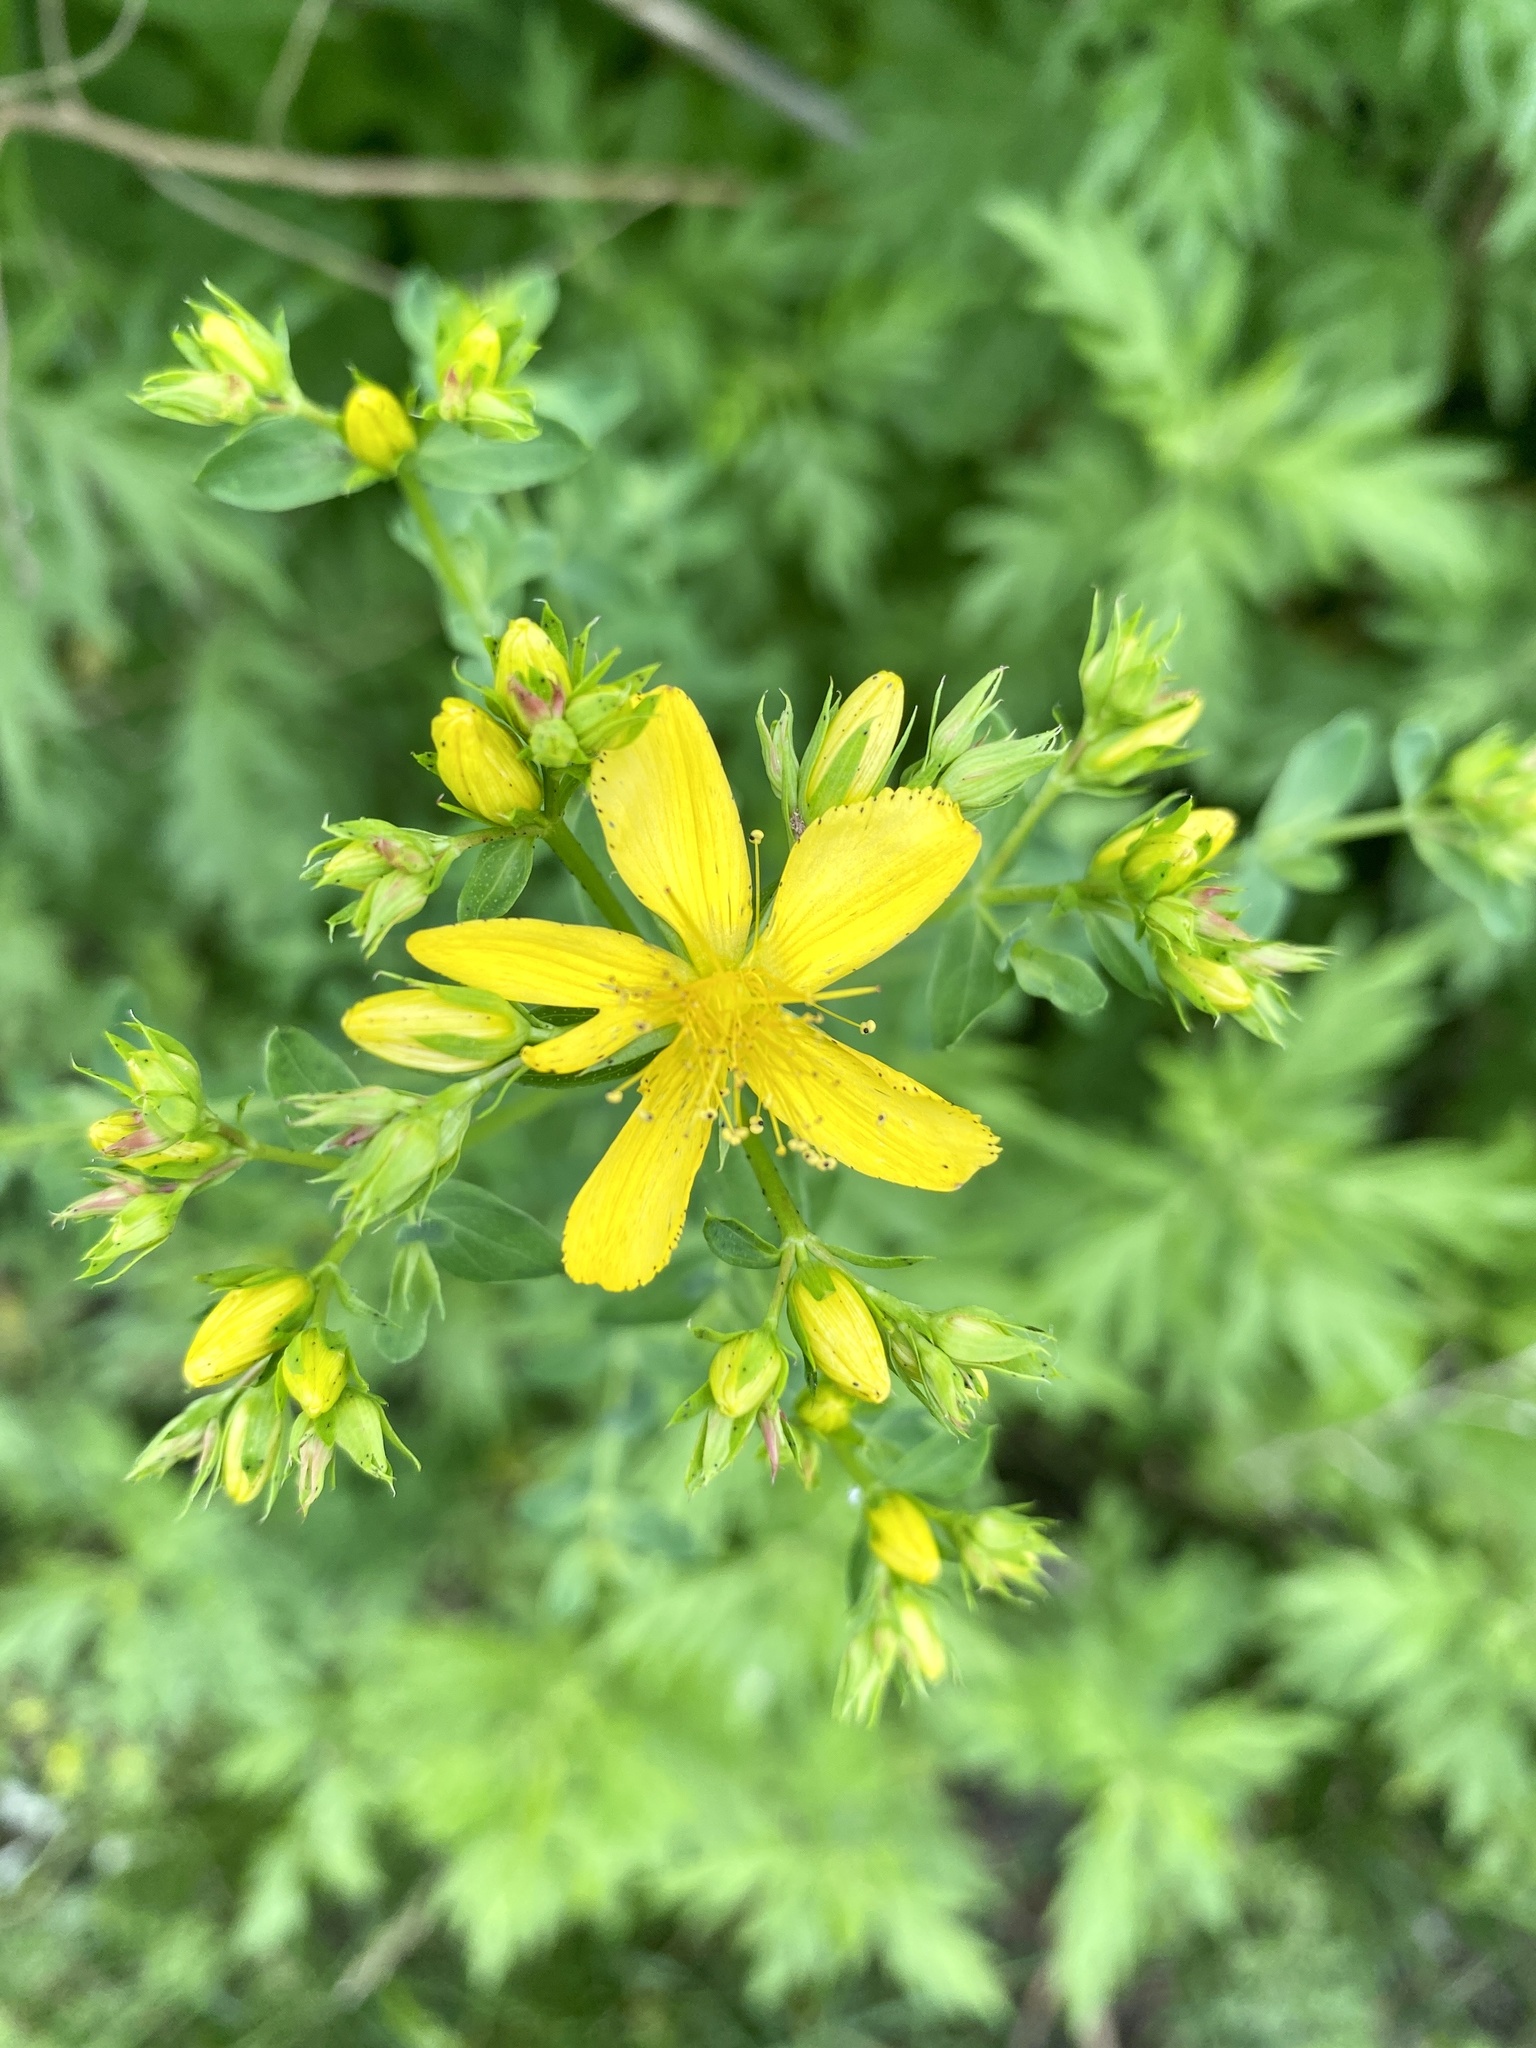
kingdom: Plantae
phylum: Tracheophyta
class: Magnoliopsida
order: Malpighiales
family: Hypericaceae
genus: Hypericum
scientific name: Hypericum perforatum
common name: Common st. johnswort
